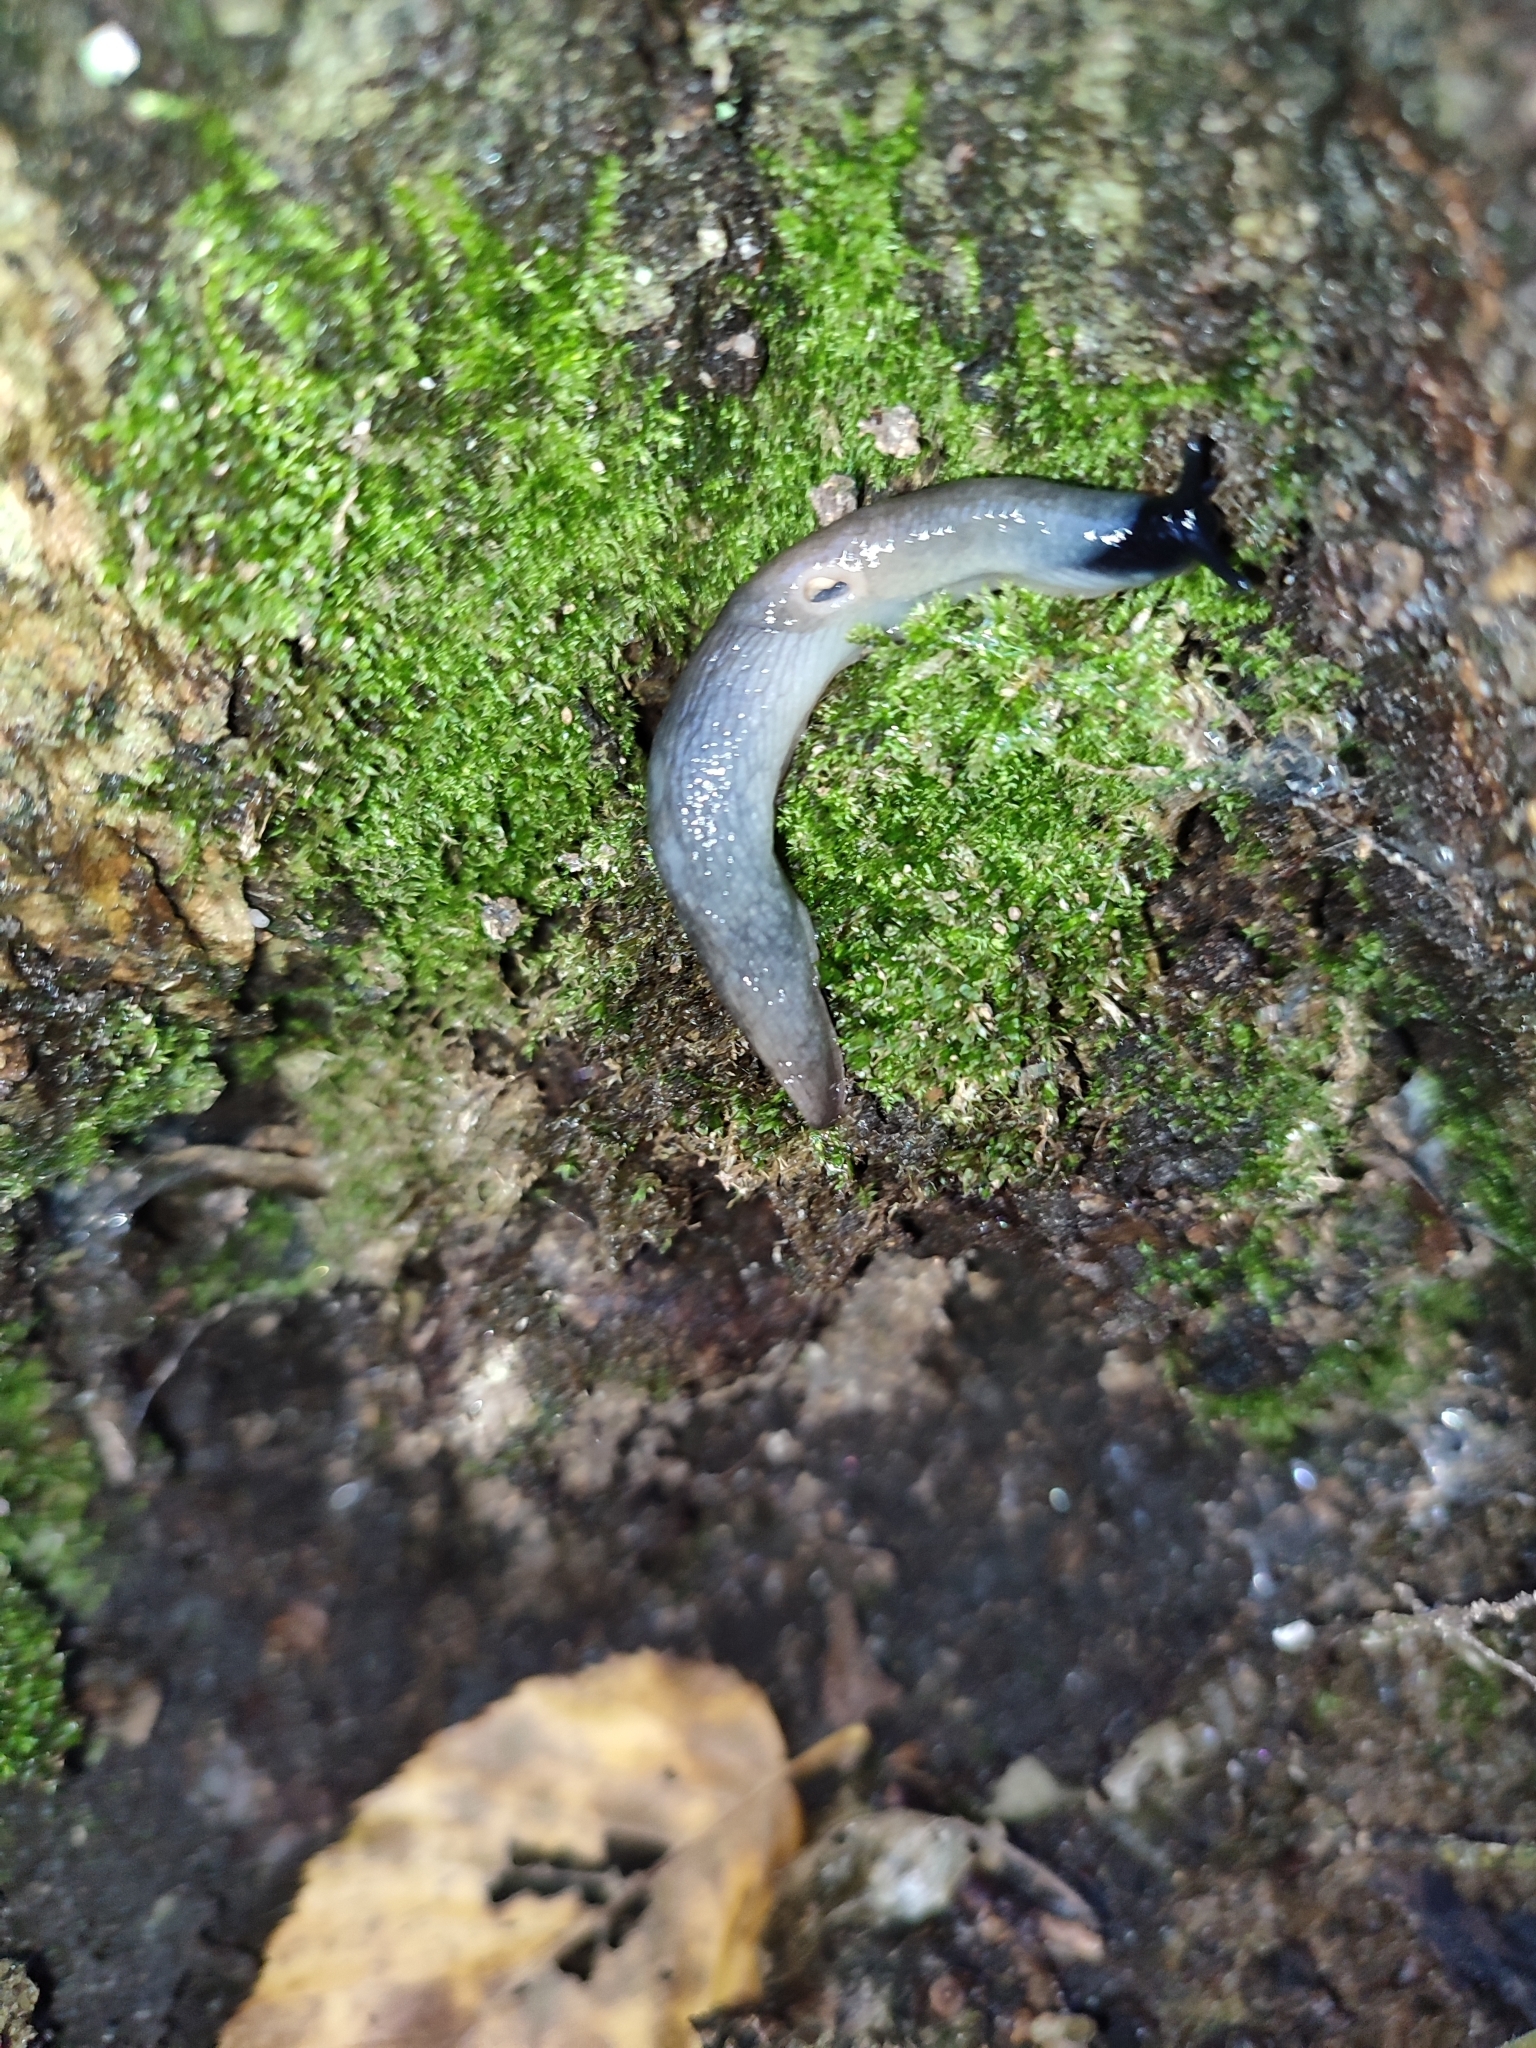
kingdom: Animalia
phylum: Mollusca
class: Gastropoda
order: Stylommatophora
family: Agriolimacidae
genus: Krynickillus
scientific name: Krynickillus melanocephalus
